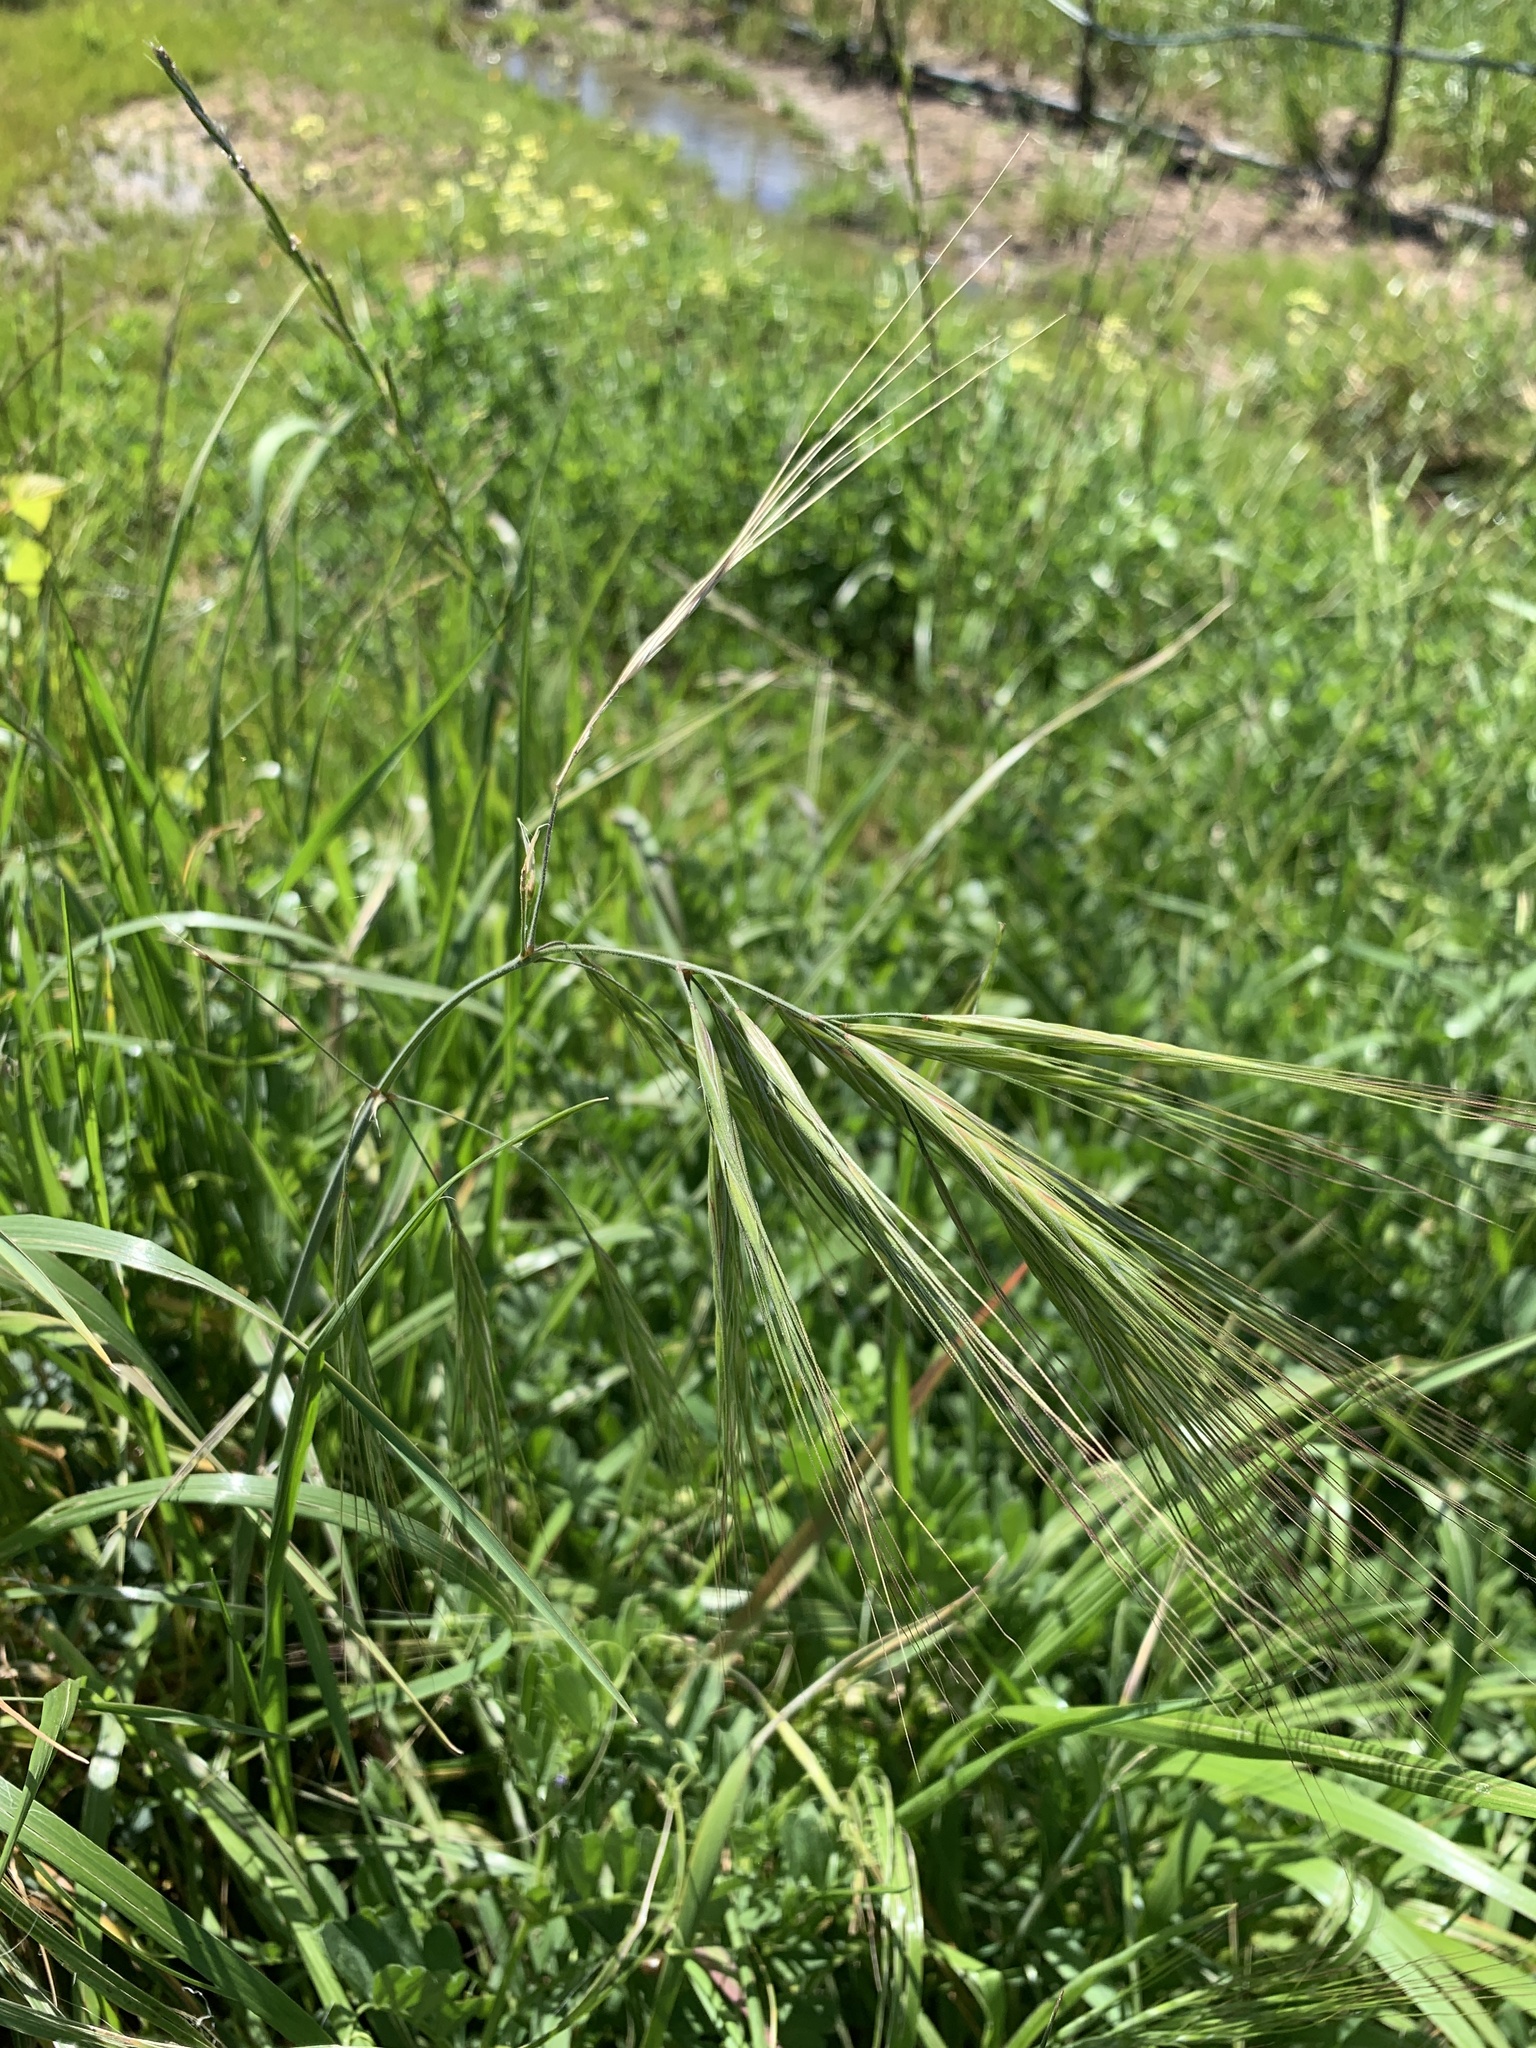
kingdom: Plantae
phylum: Tracheophyta
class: Liliopsida
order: Poales
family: Poaceae
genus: Bromus
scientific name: Bromus diandrus
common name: Ripgut brome
